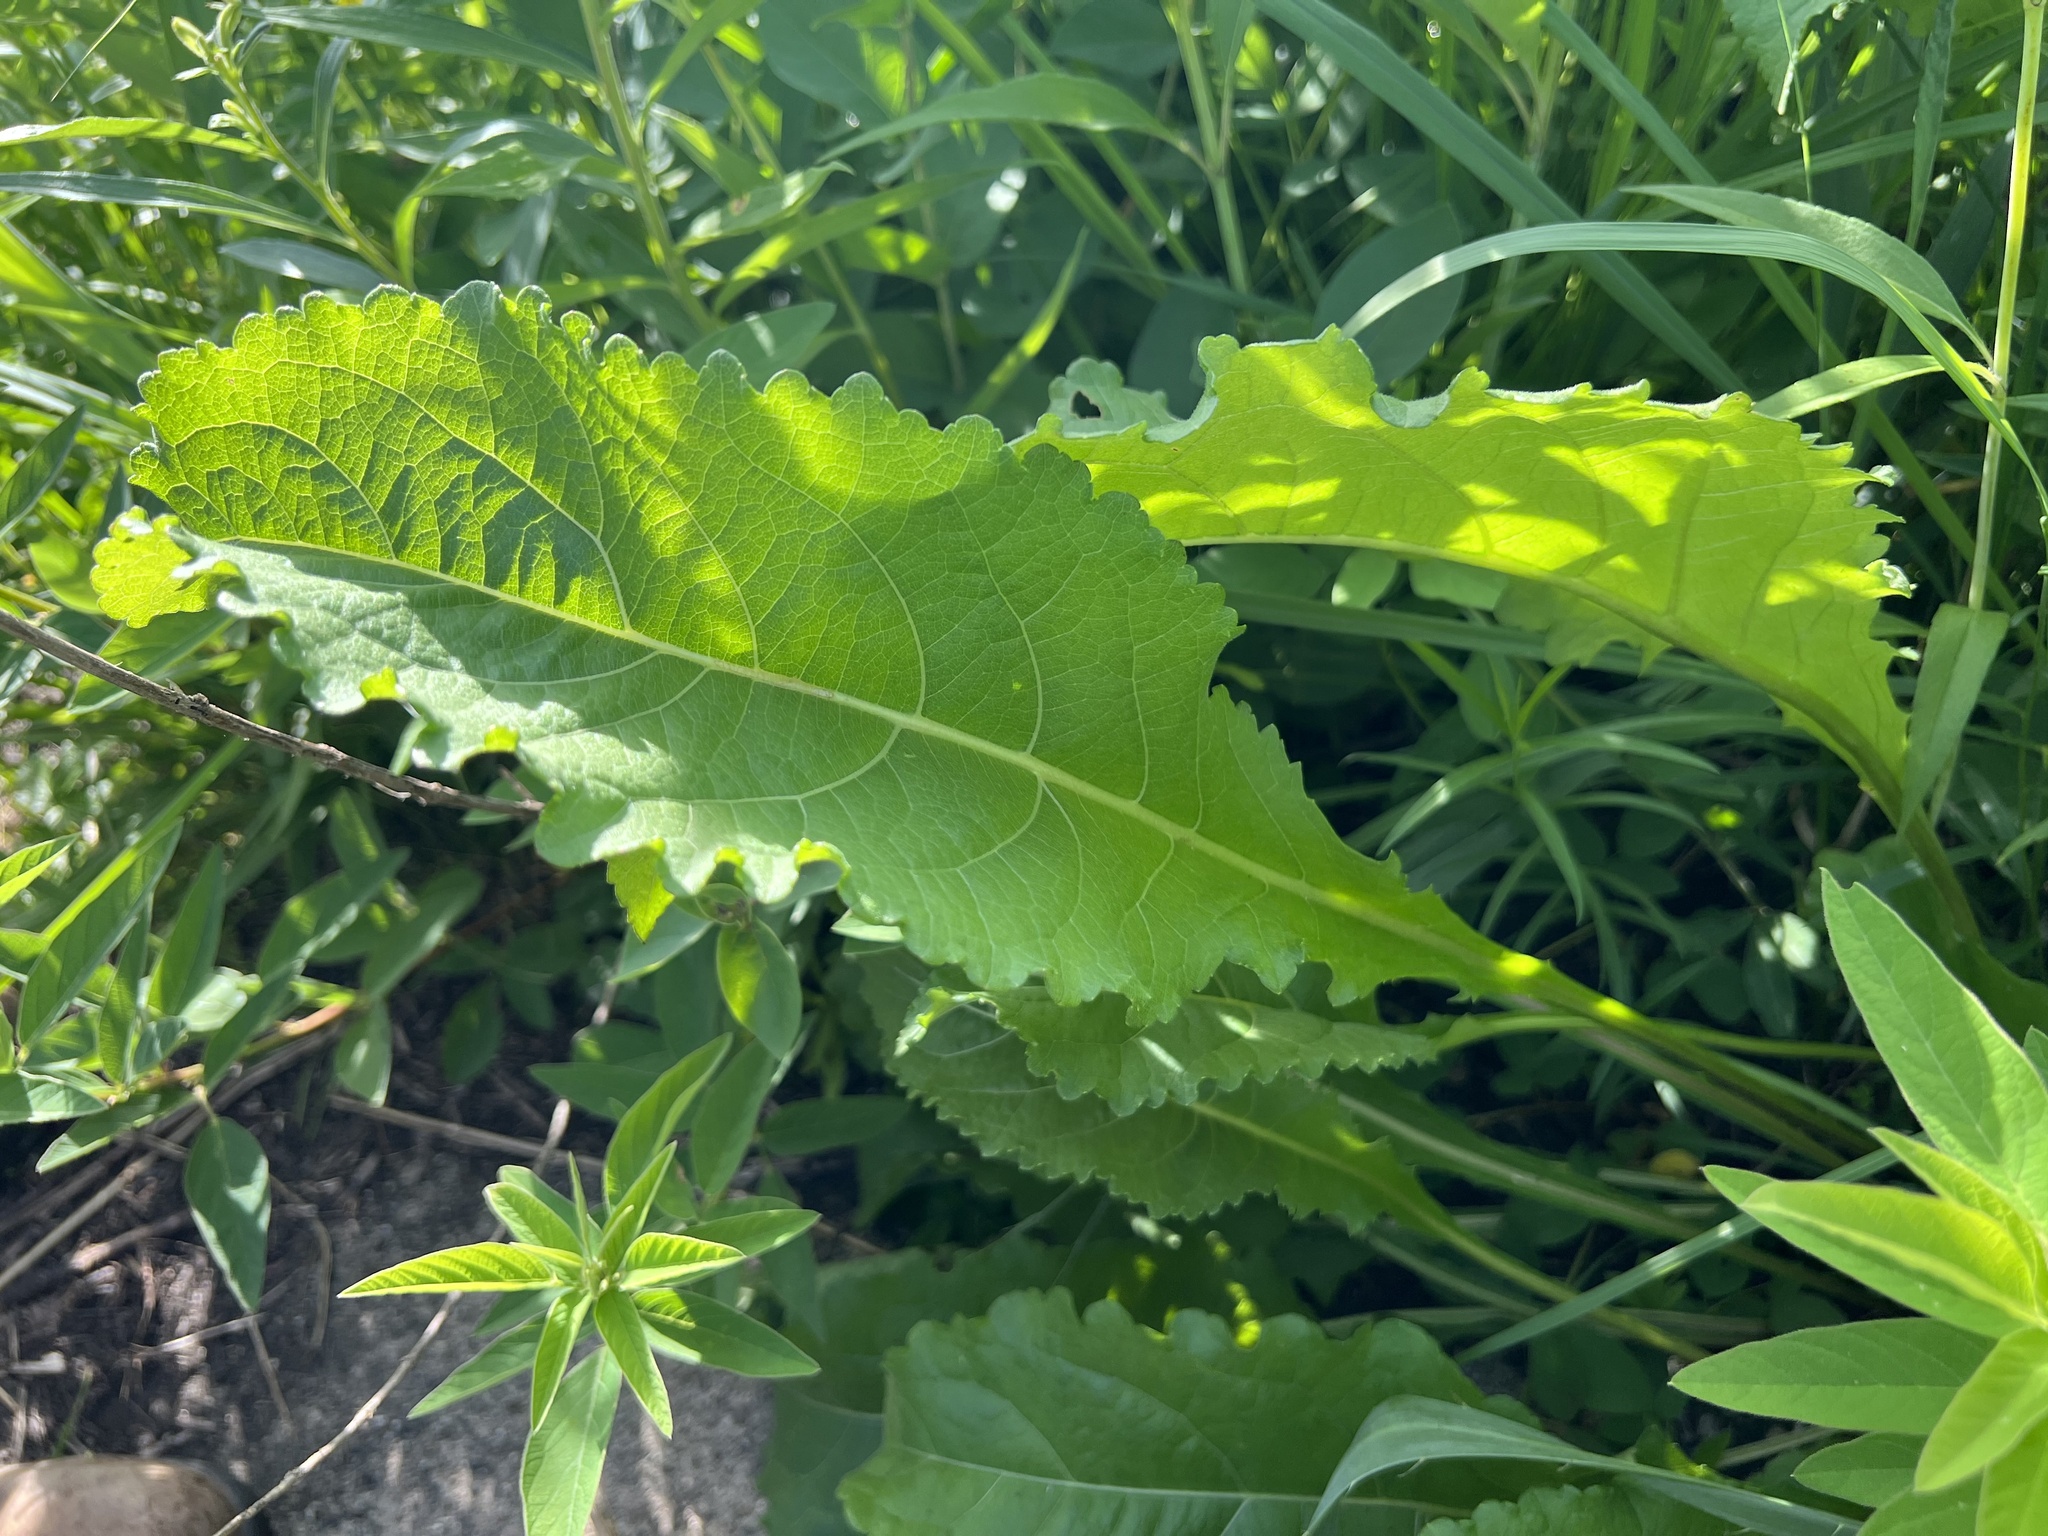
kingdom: Plantae
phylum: Tracheophyta
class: Magnoliopsida
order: Asterales
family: Asteraceae
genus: Parthenium
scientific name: Parthenium integrifolium
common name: American feverfew
